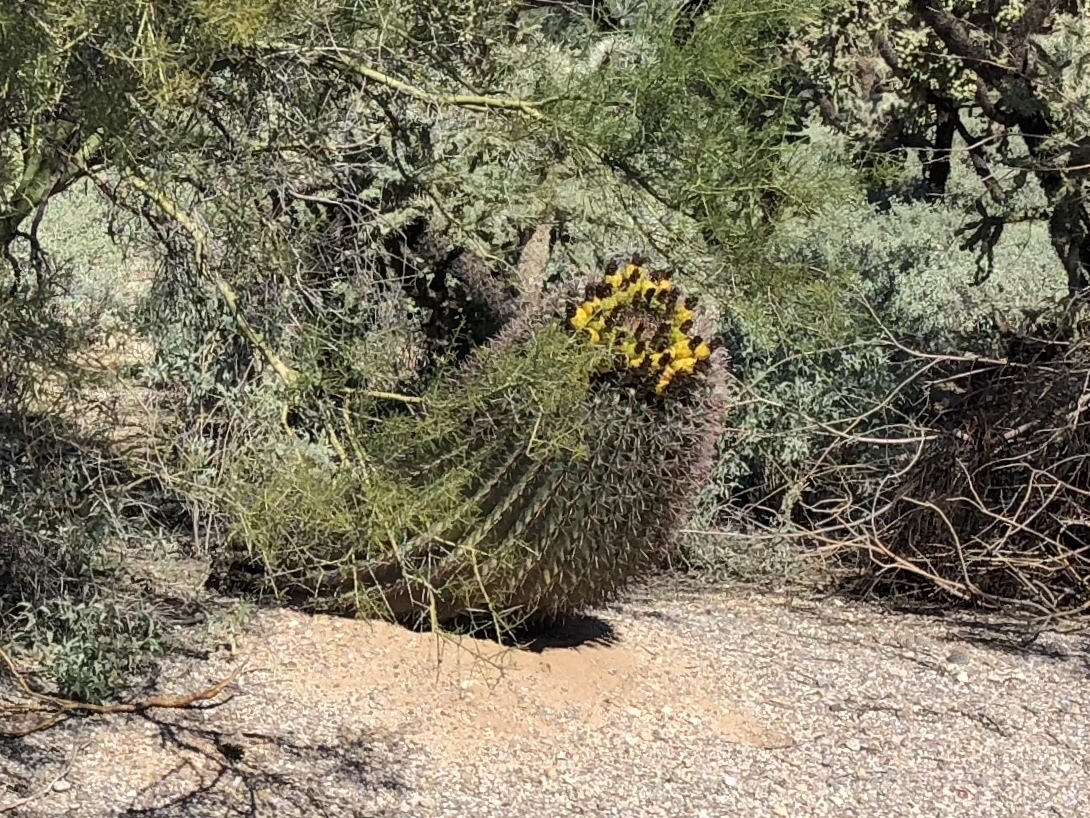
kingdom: Plantae
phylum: Tracheophyta
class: Magnoliopsida
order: Caryophyllales
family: Cactaceae
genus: Ferocactus
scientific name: Ferocactus wislizeni
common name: Candy barrel cactus
